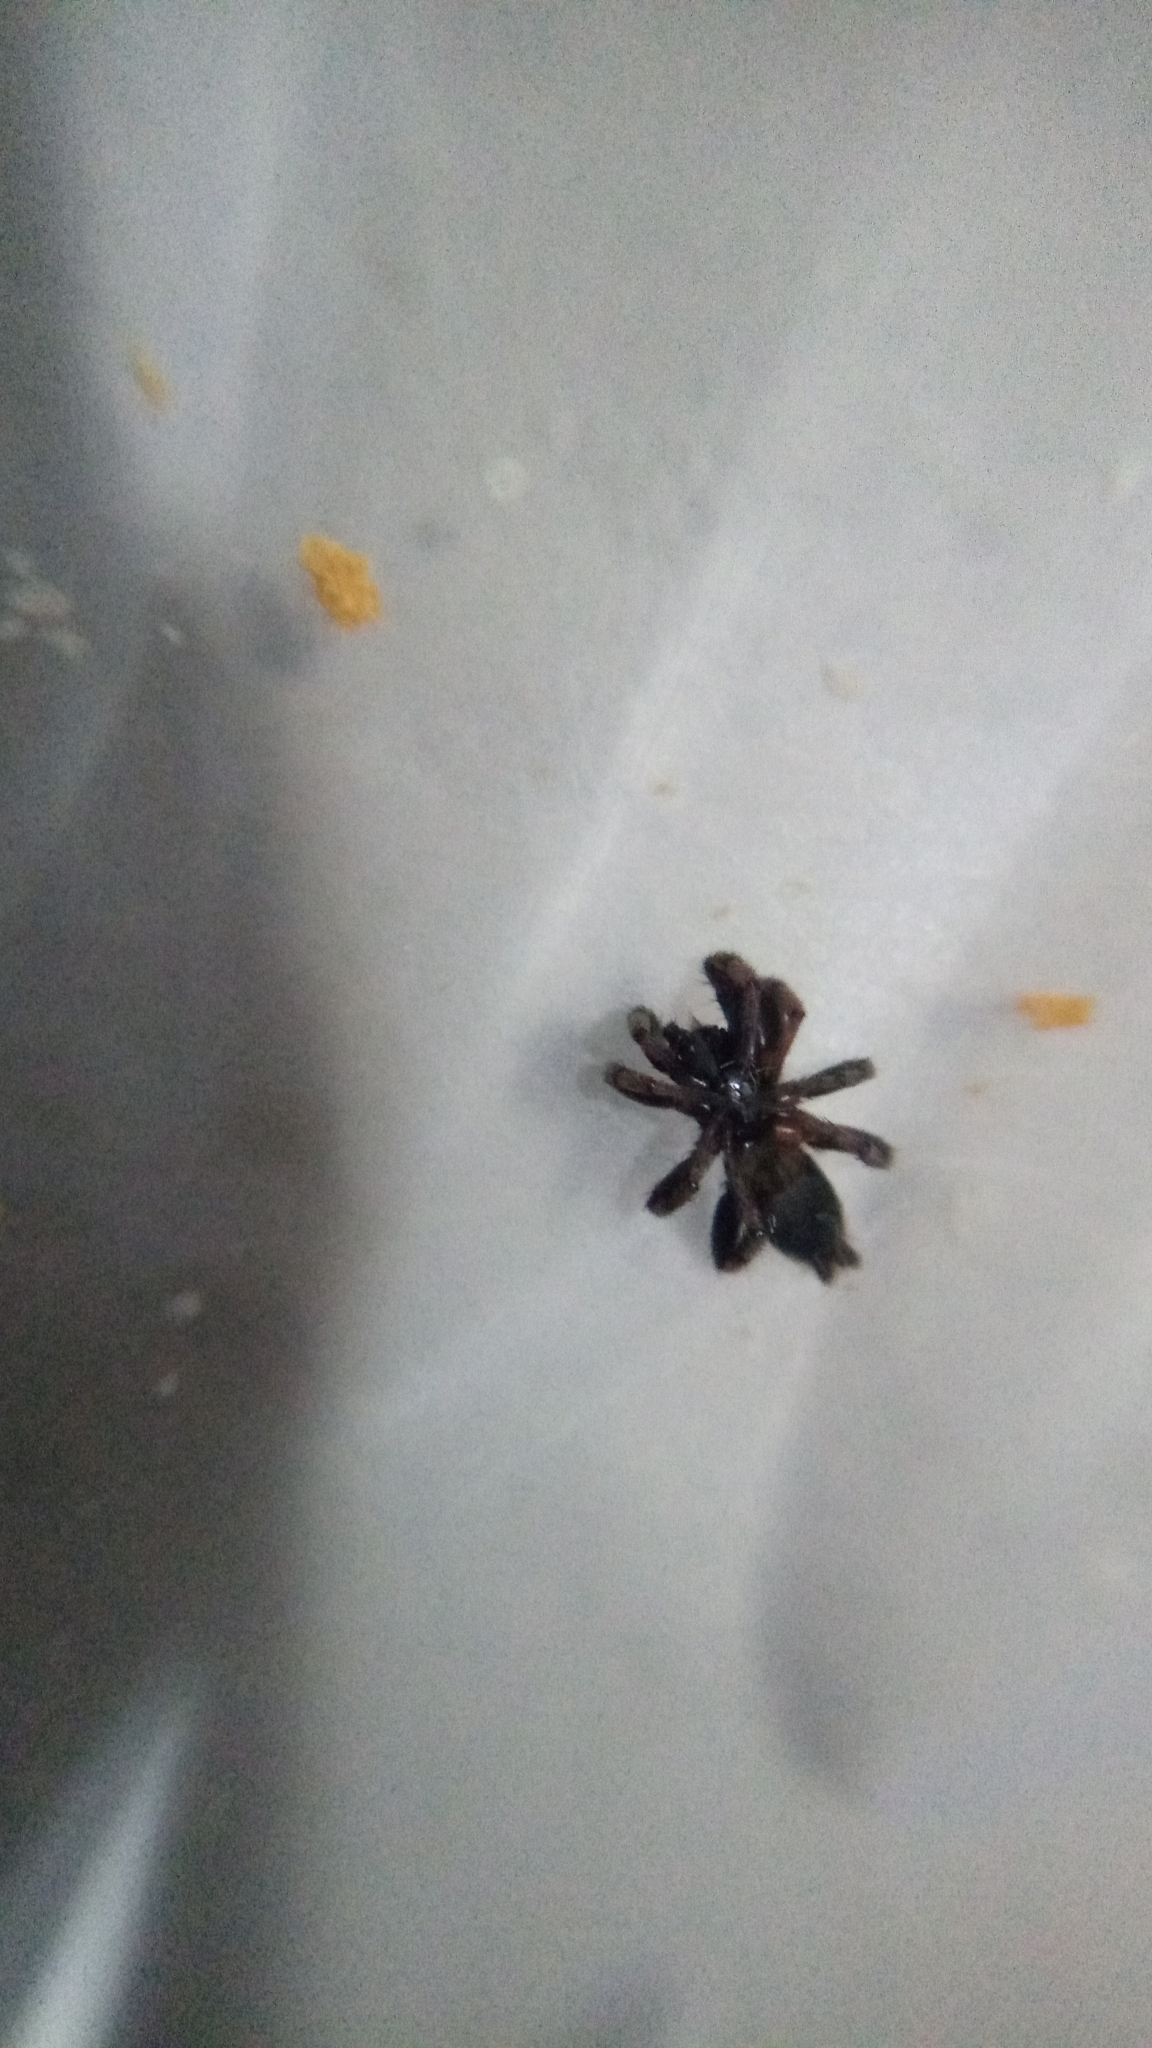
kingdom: Animalia
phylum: Arthropoda
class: Arachnida
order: Araneae
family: Gnaphosidae
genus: Latonigena
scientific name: Latonigena auricomis
